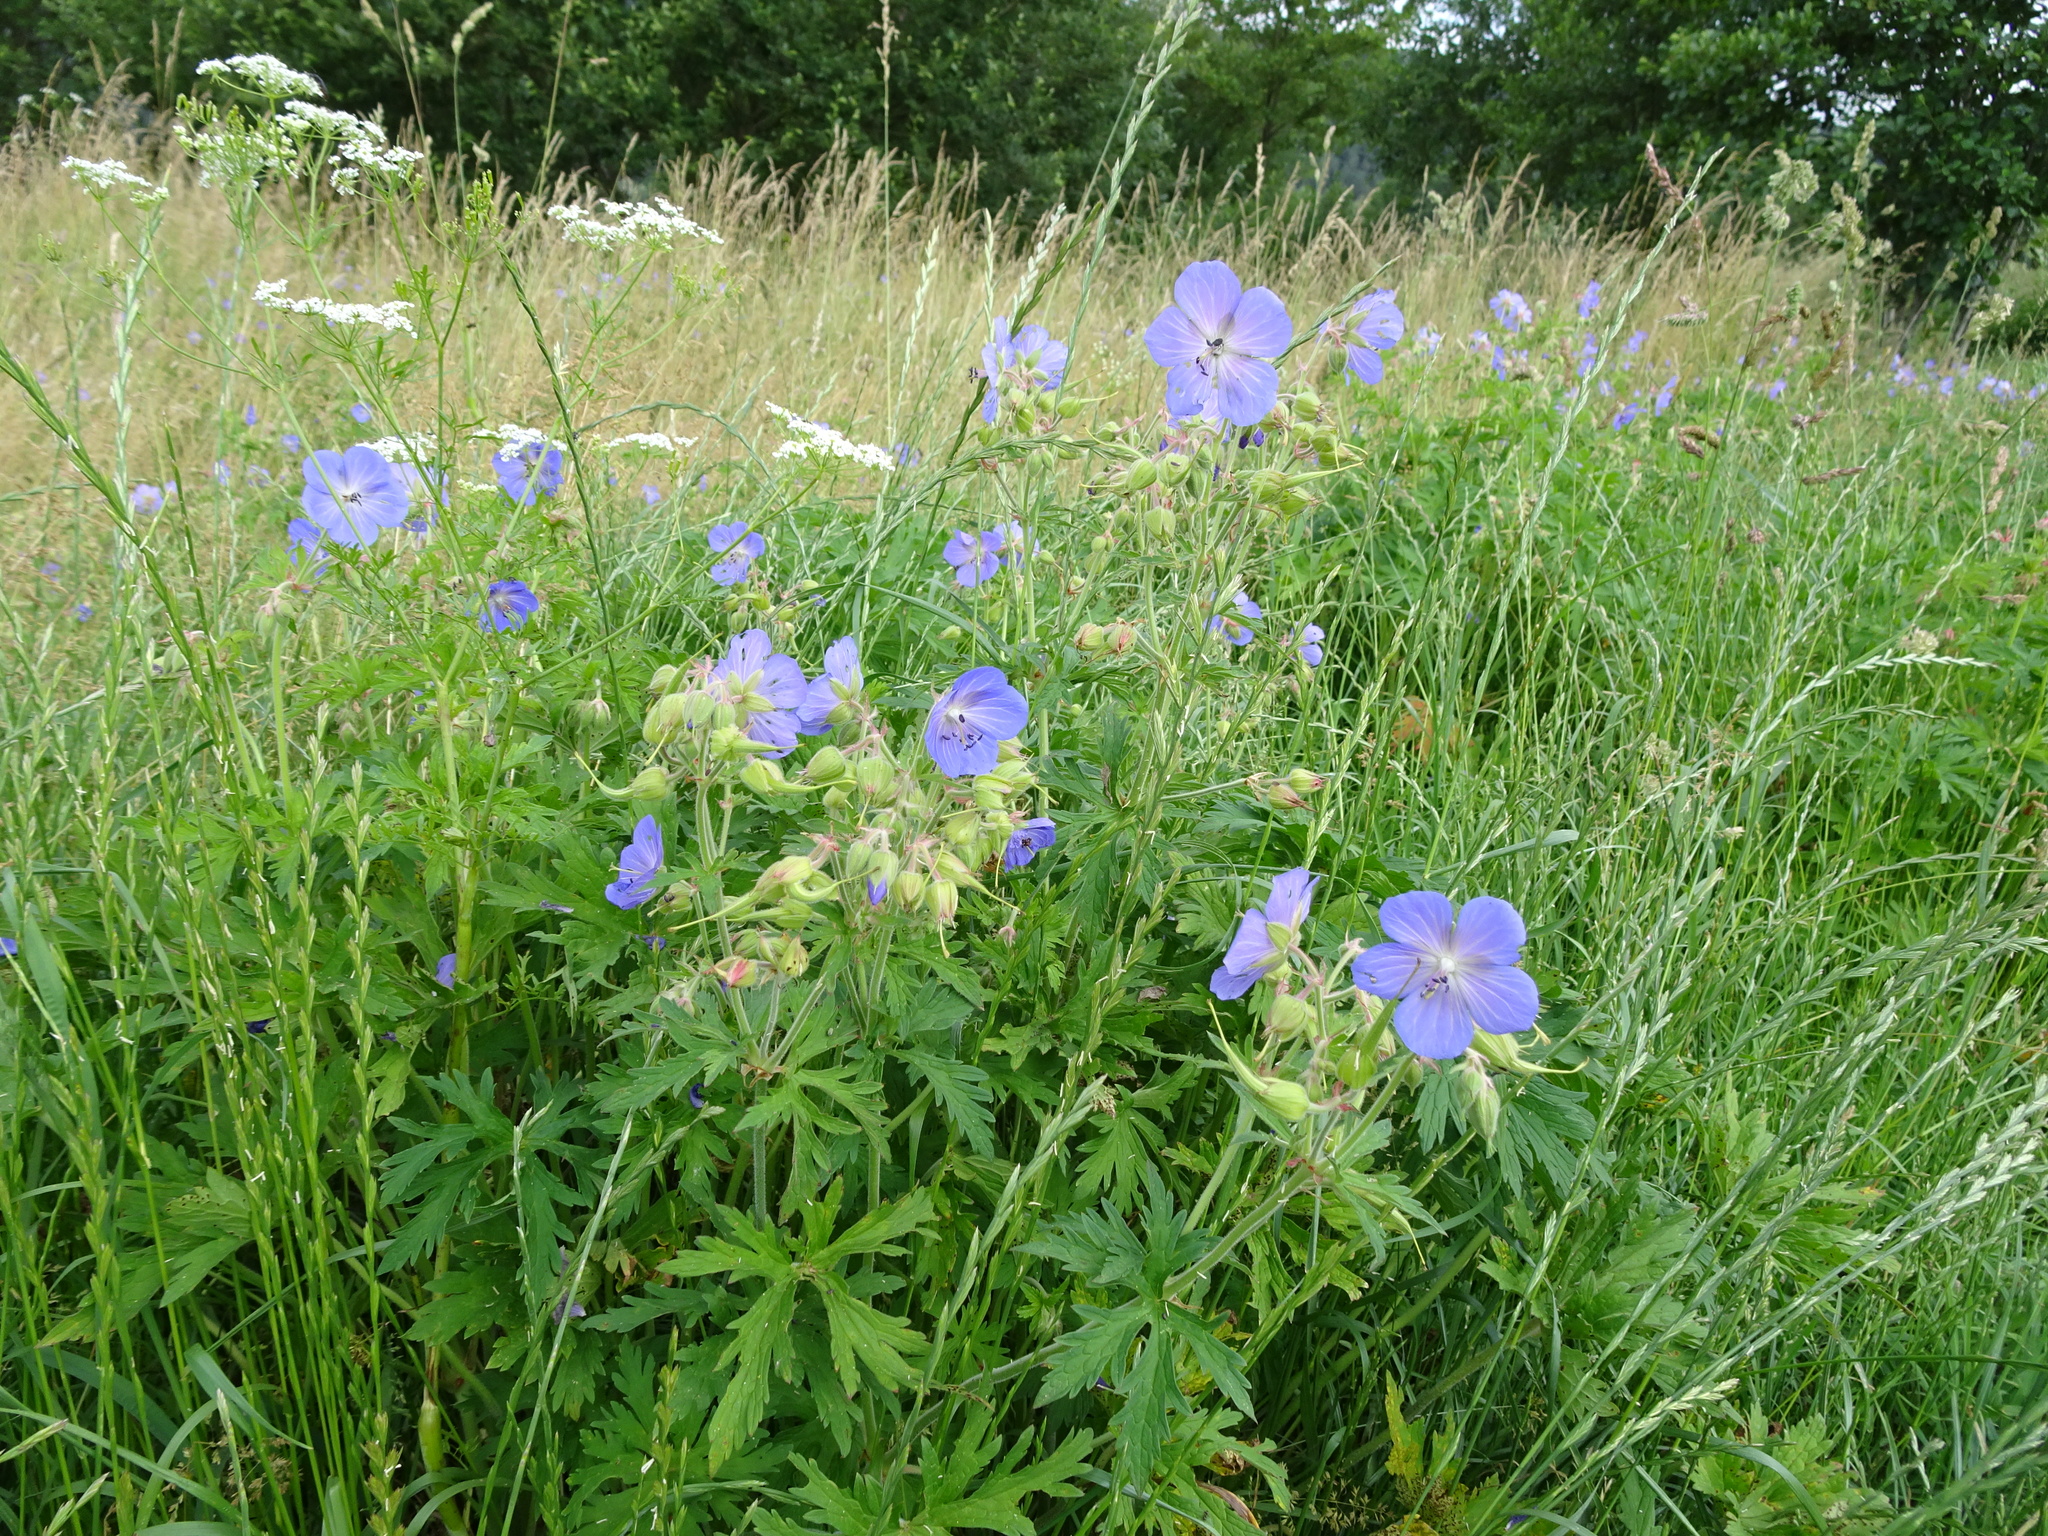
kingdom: Plantae
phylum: Tracheophyta
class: Magnoliopsida
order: Geraniales
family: Geraniaceae
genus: Geranium
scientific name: Geranium pratense
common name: Meadow crane's-bill
